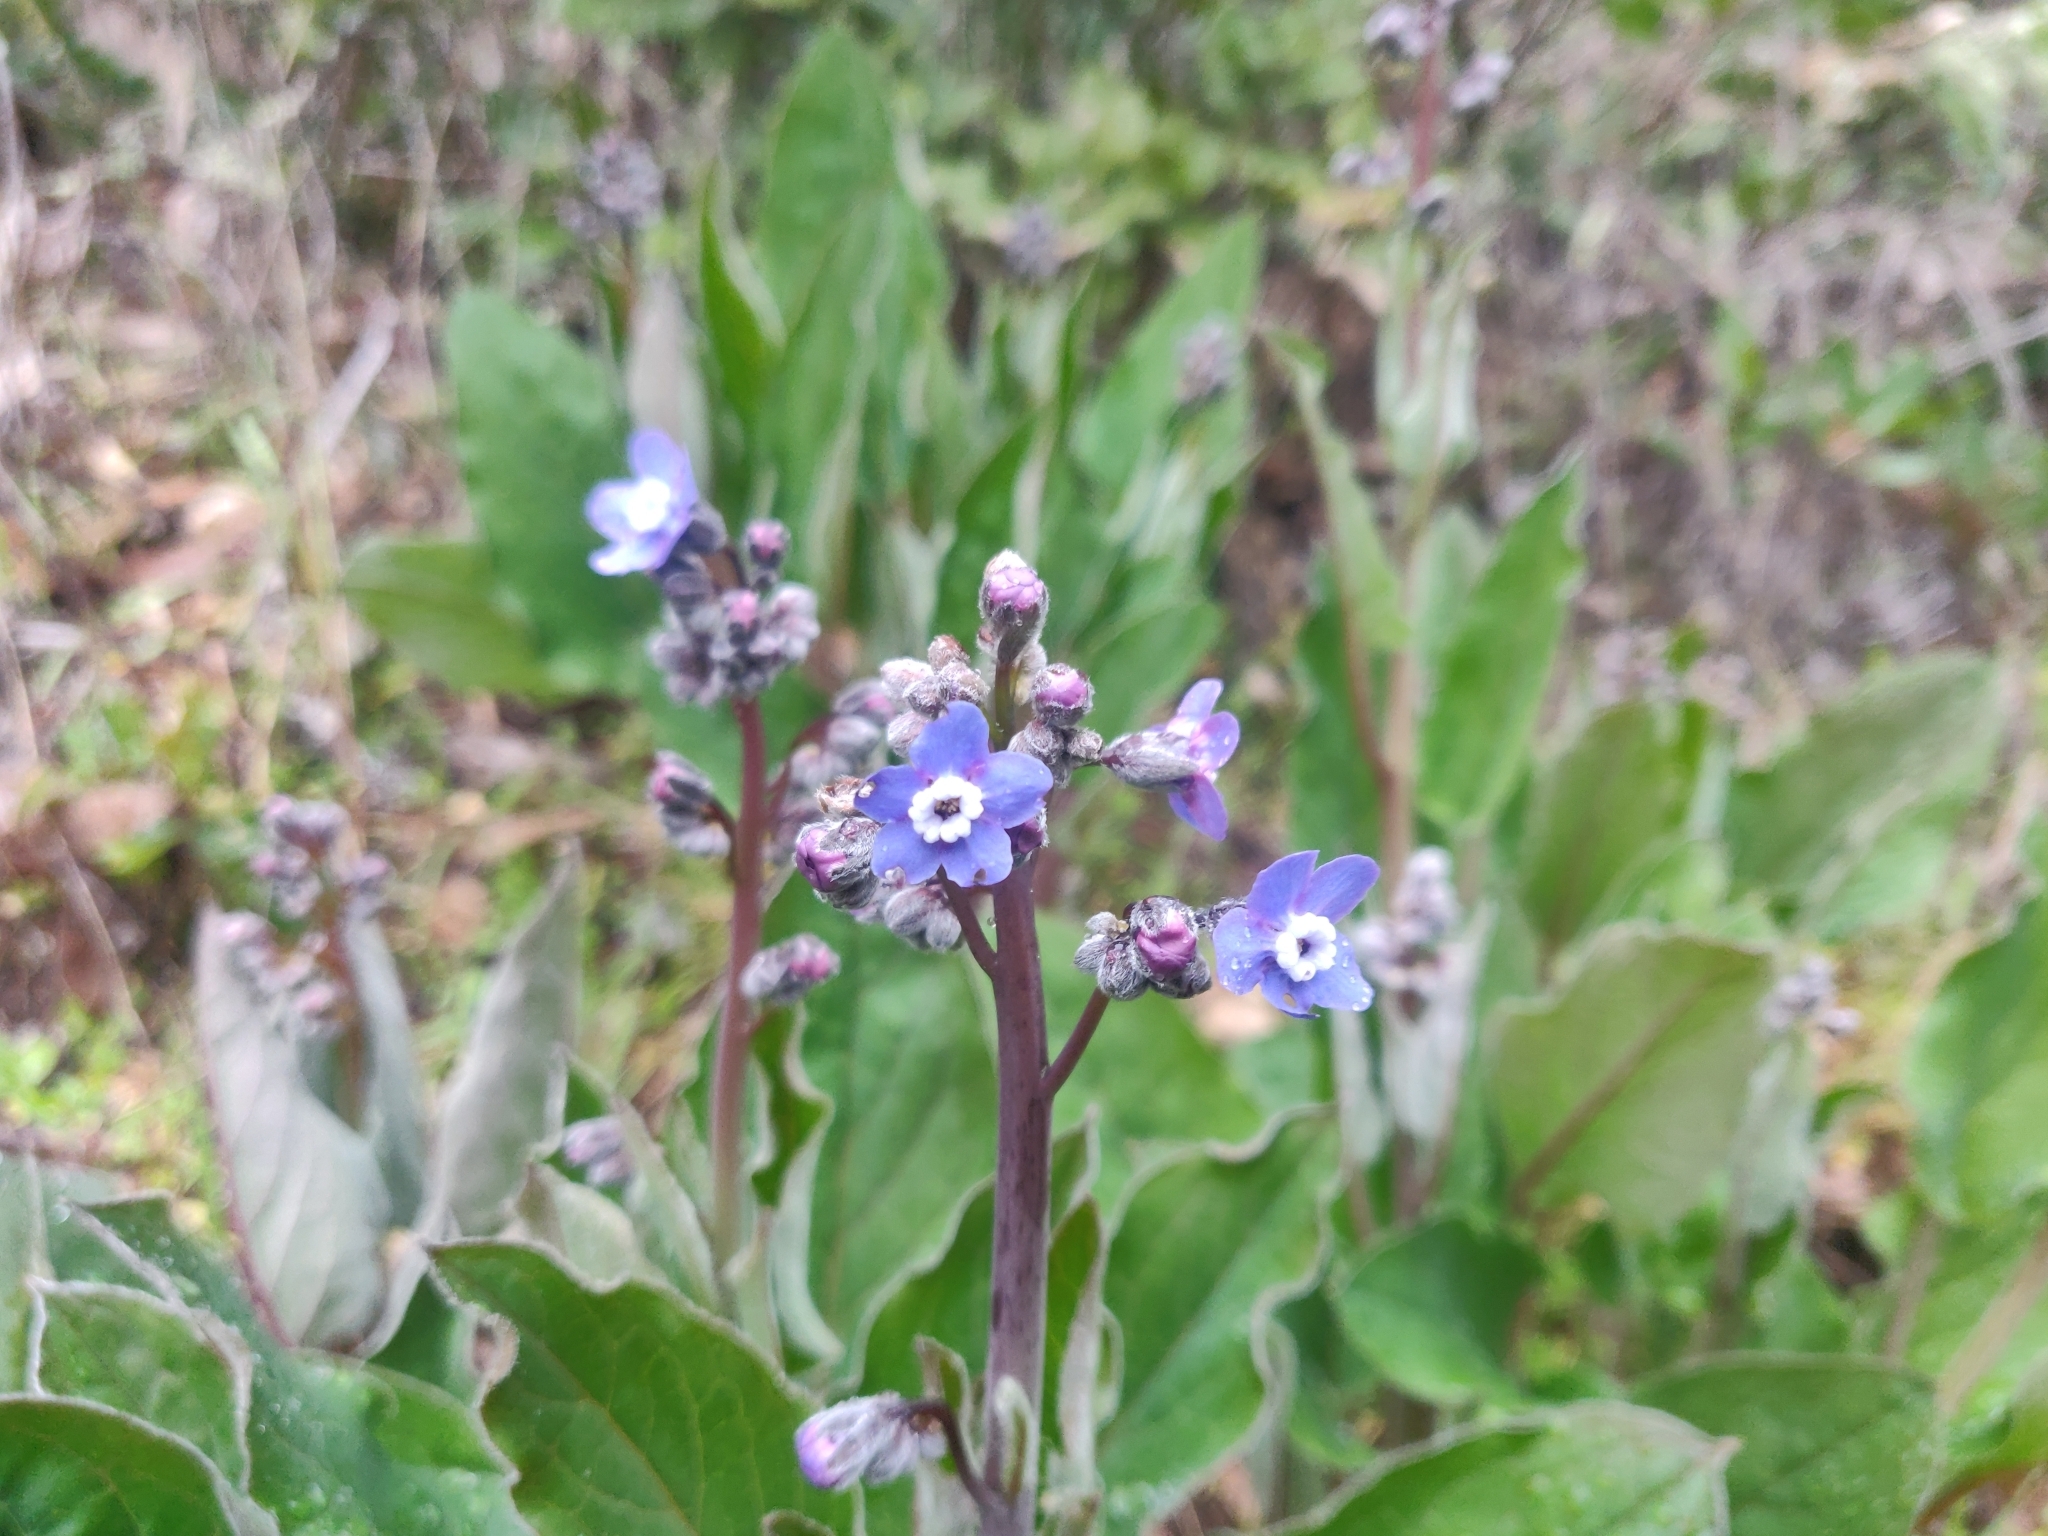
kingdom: Plantae
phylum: Tracheophyta
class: Magnoliopsida
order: Boraginales
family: Boraginaceae
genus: Adelinia
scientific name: Adelinia grande
